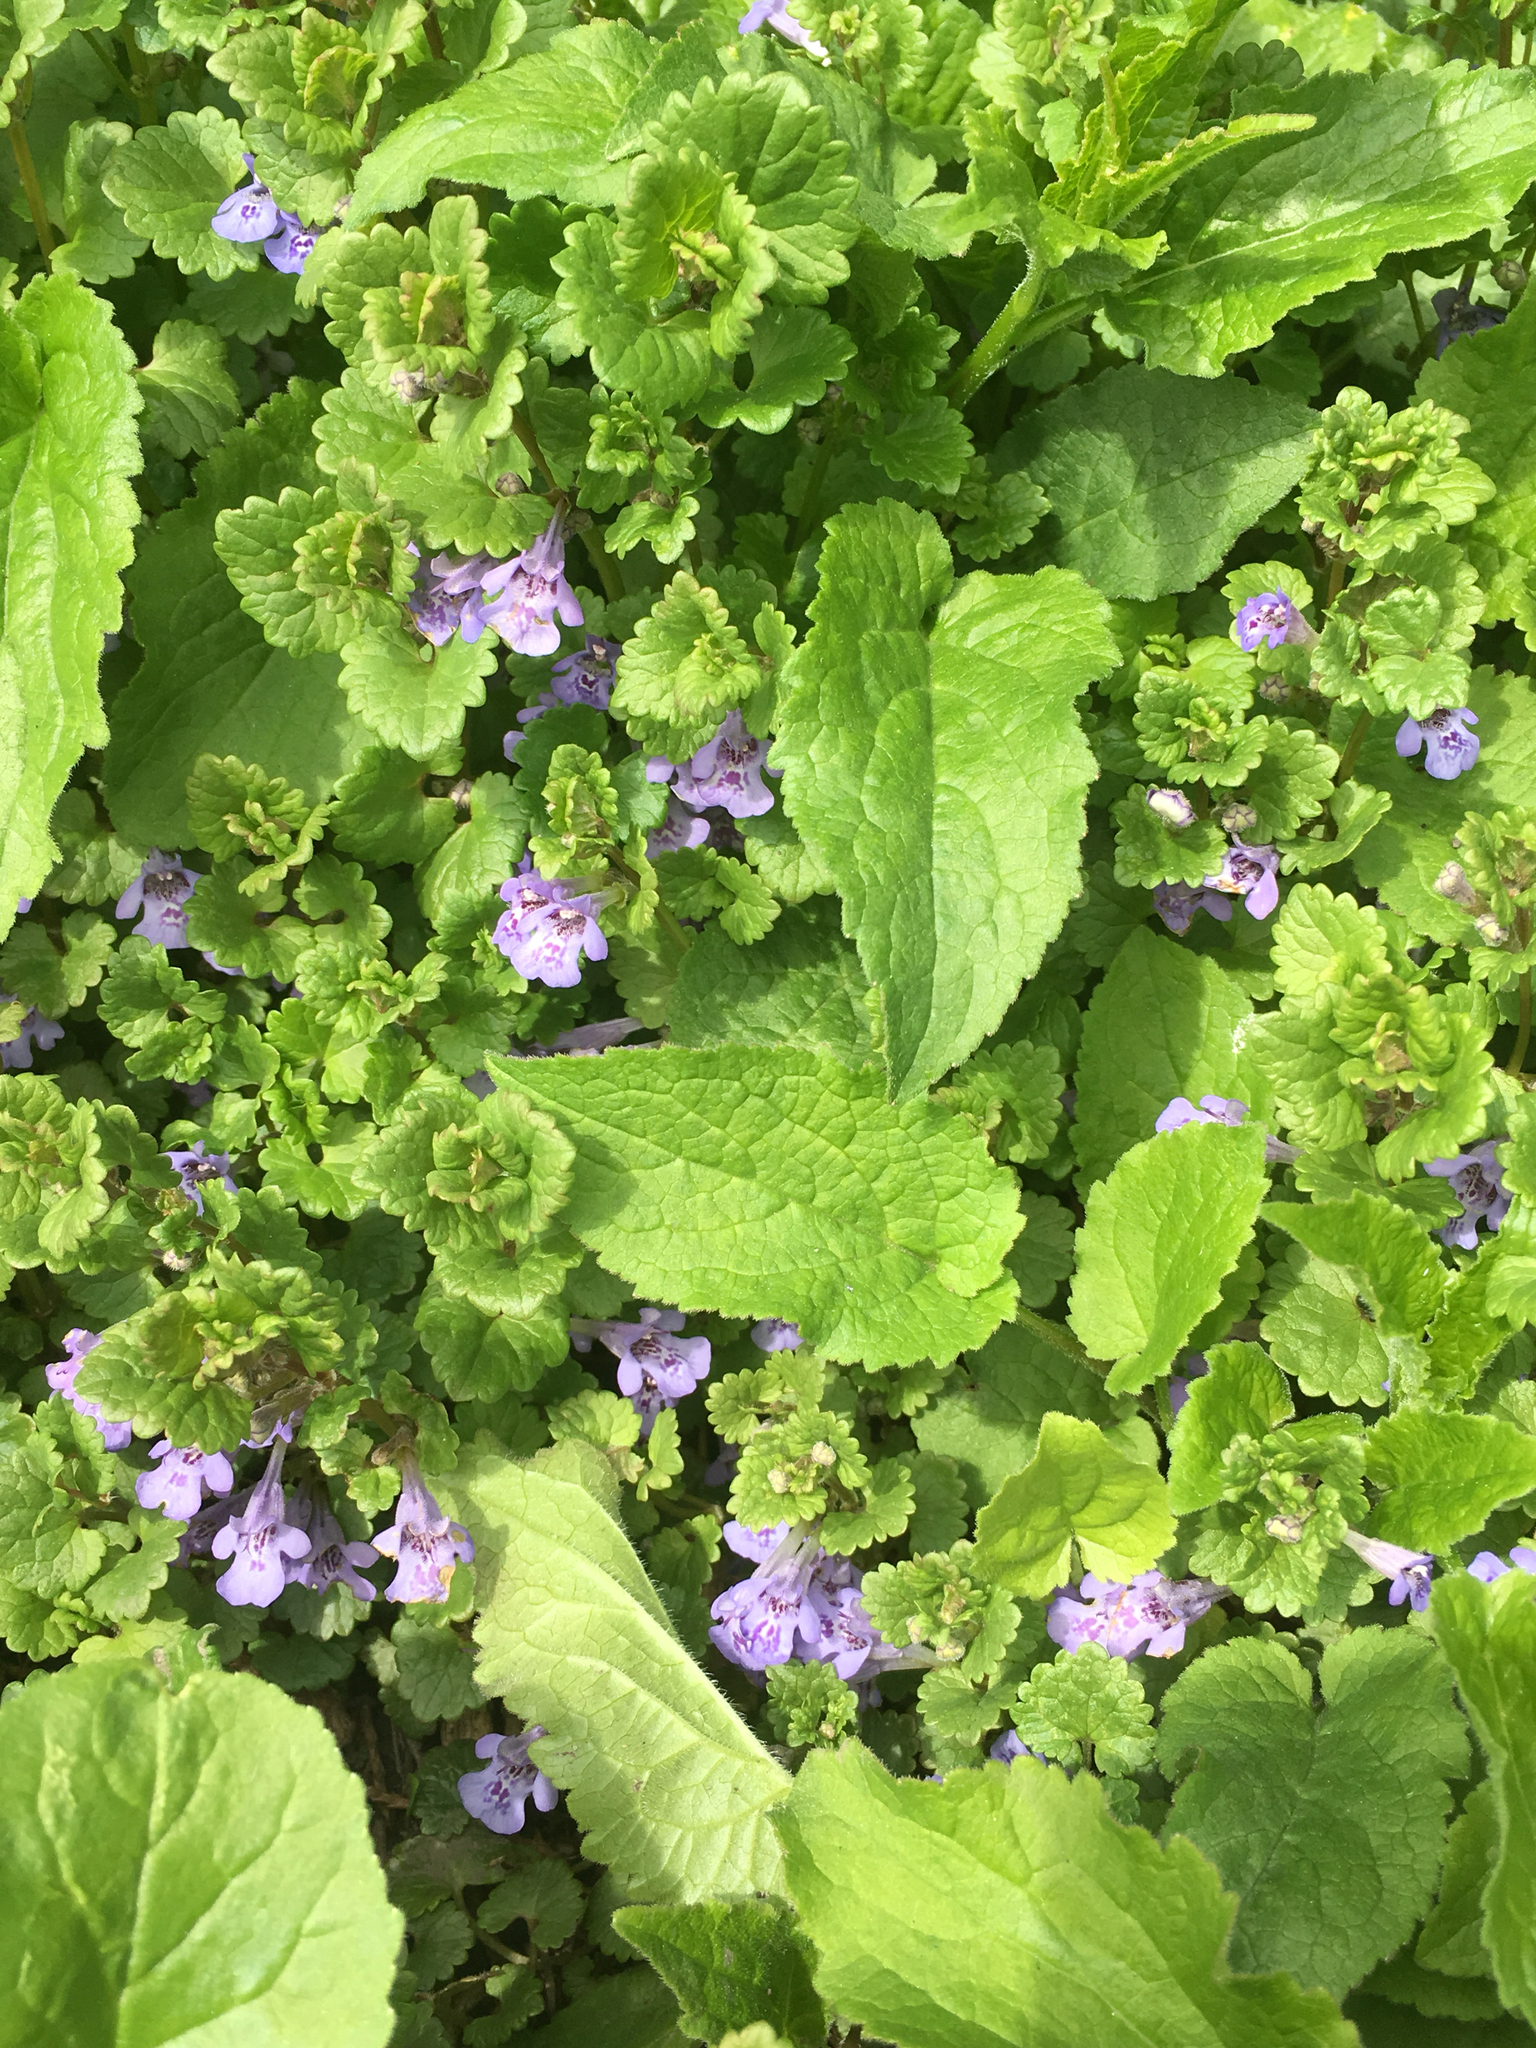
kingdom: Plantae
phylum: Tracheophyta
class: Magnoliopsida
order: Lamiales
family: Lamiaceae
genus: Glechoma
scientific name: Glechoma hederacea
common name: Ground ivy
